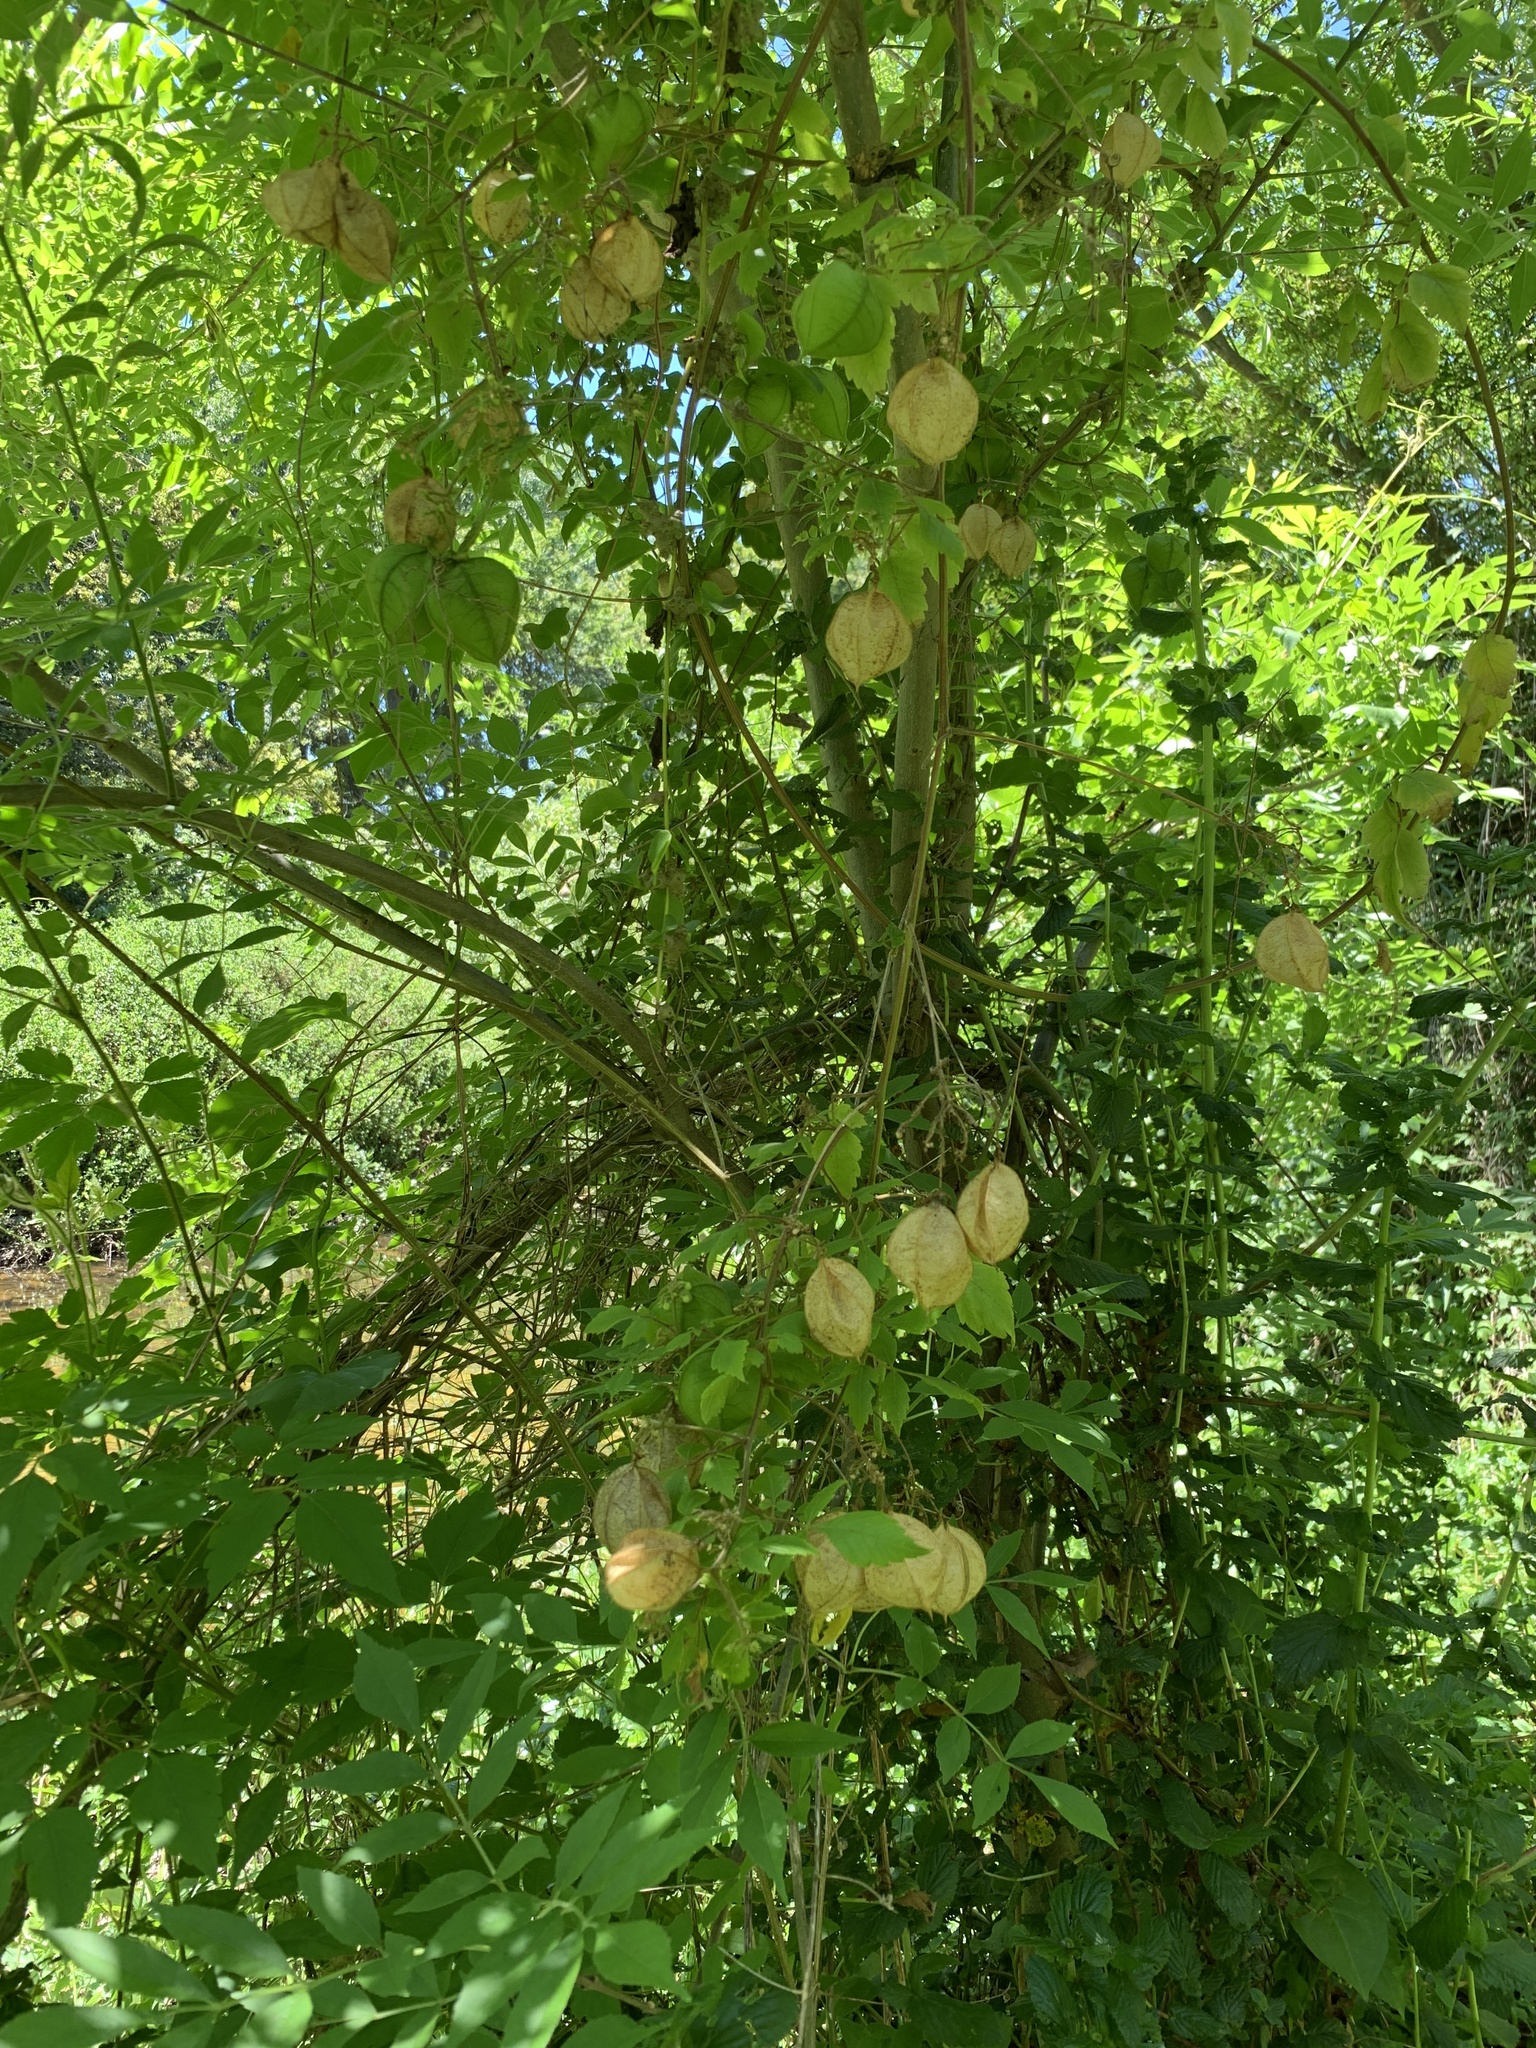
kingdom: Plantae
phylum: Tracheophyta
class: Magnoliopsida
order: Sapindales
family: Sapindaceae
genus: Cardiospermum
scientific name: Cardiospermum grandiflorum
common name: Balloon vine
